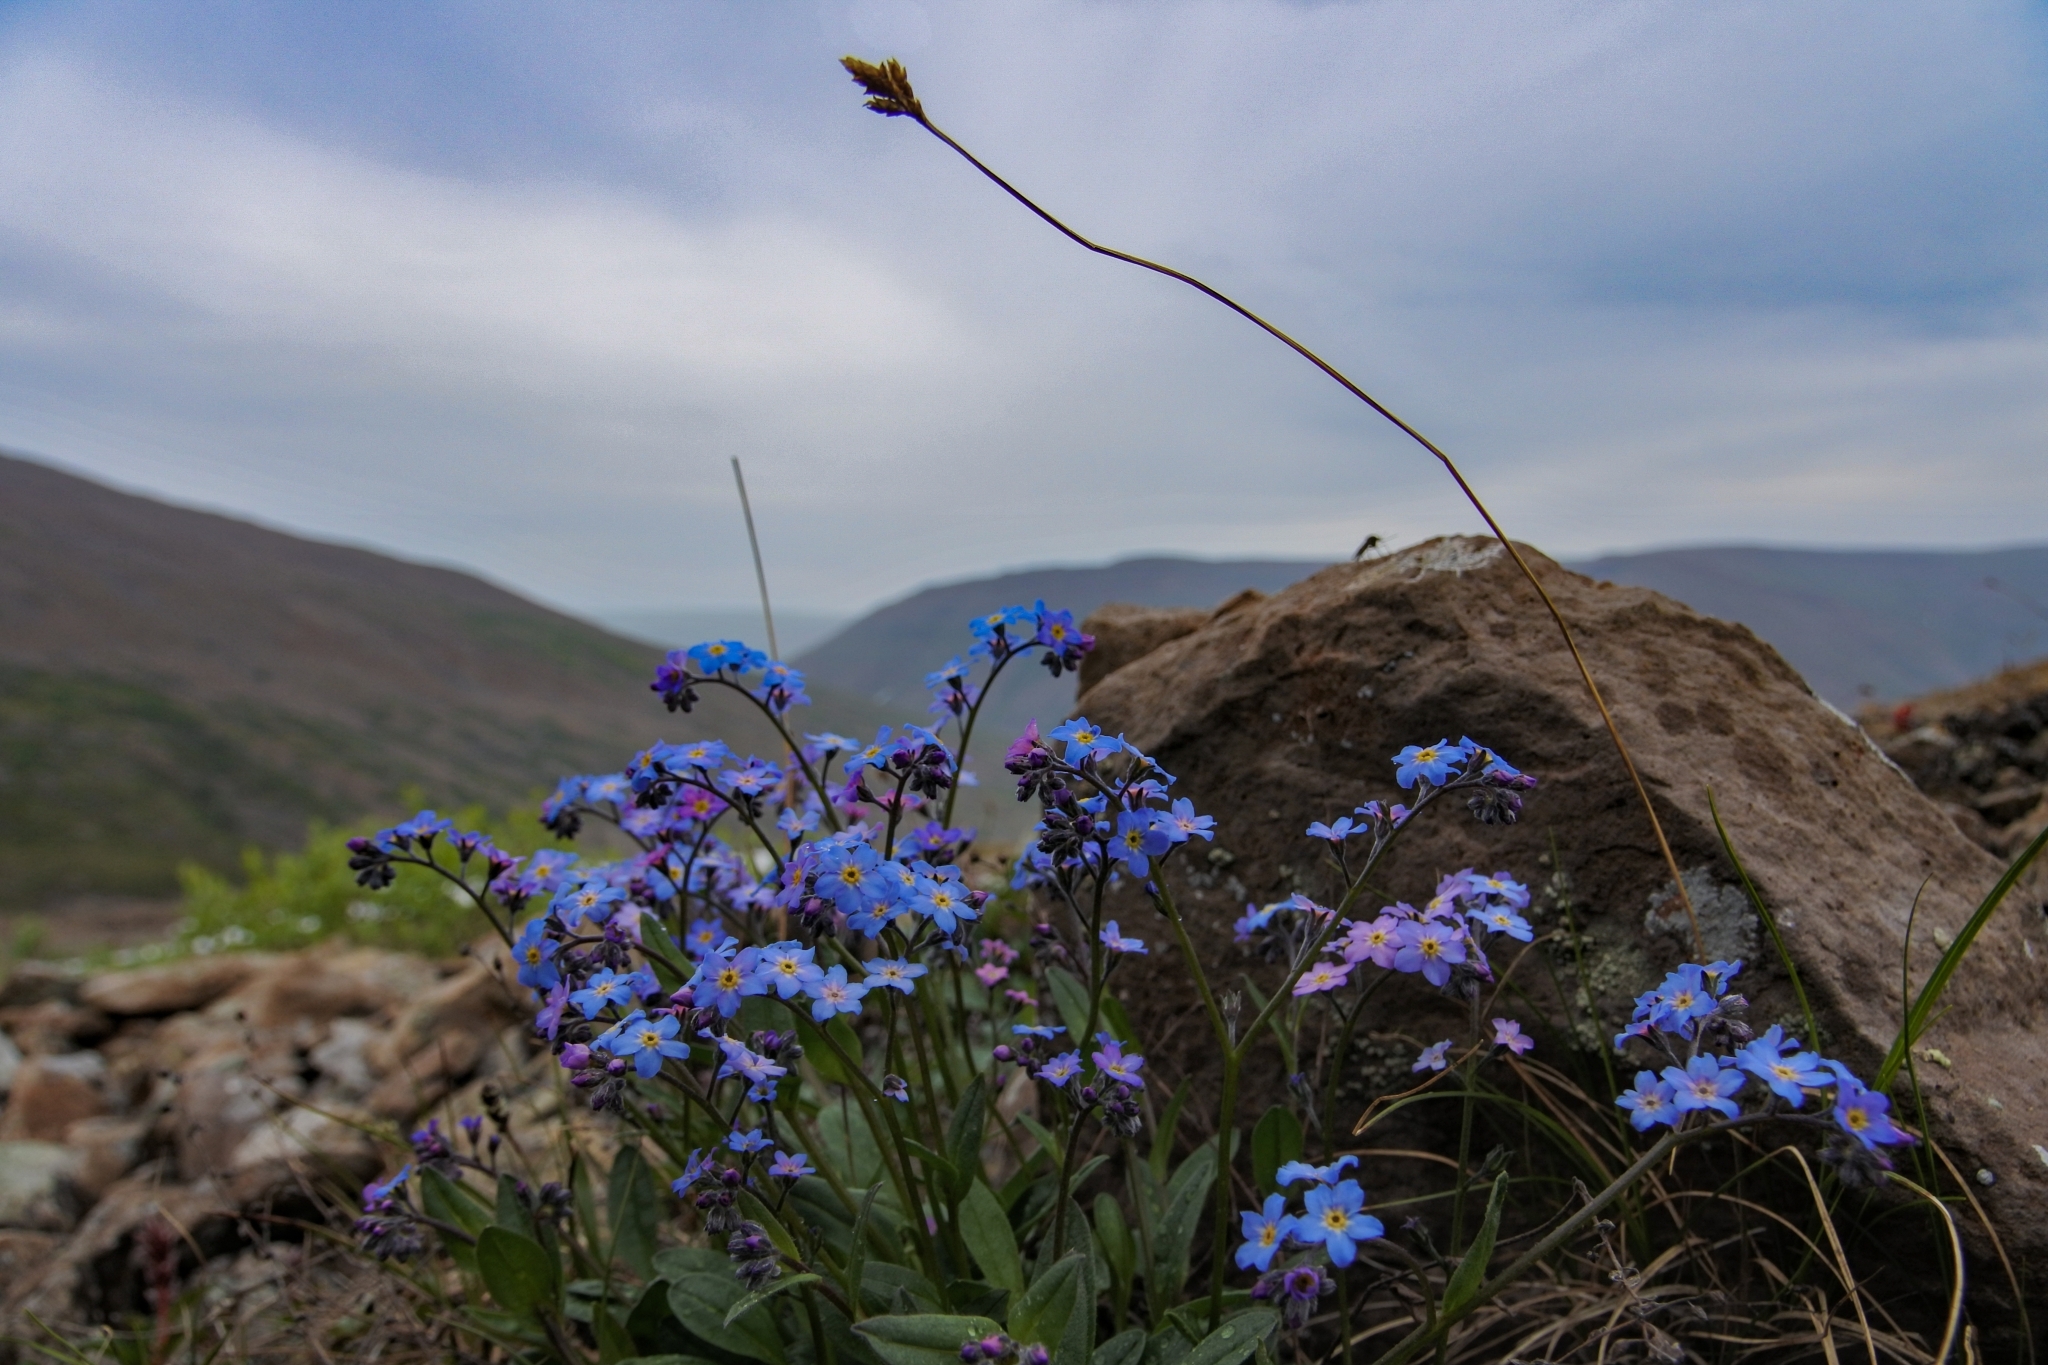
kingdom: Plantae
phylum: Tracheophyta
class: Magnoliopsida
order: Boraginales
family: Boraginaceae
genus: Myosotis
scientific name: Myosotis asiatica
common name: Asian forget-me-not
